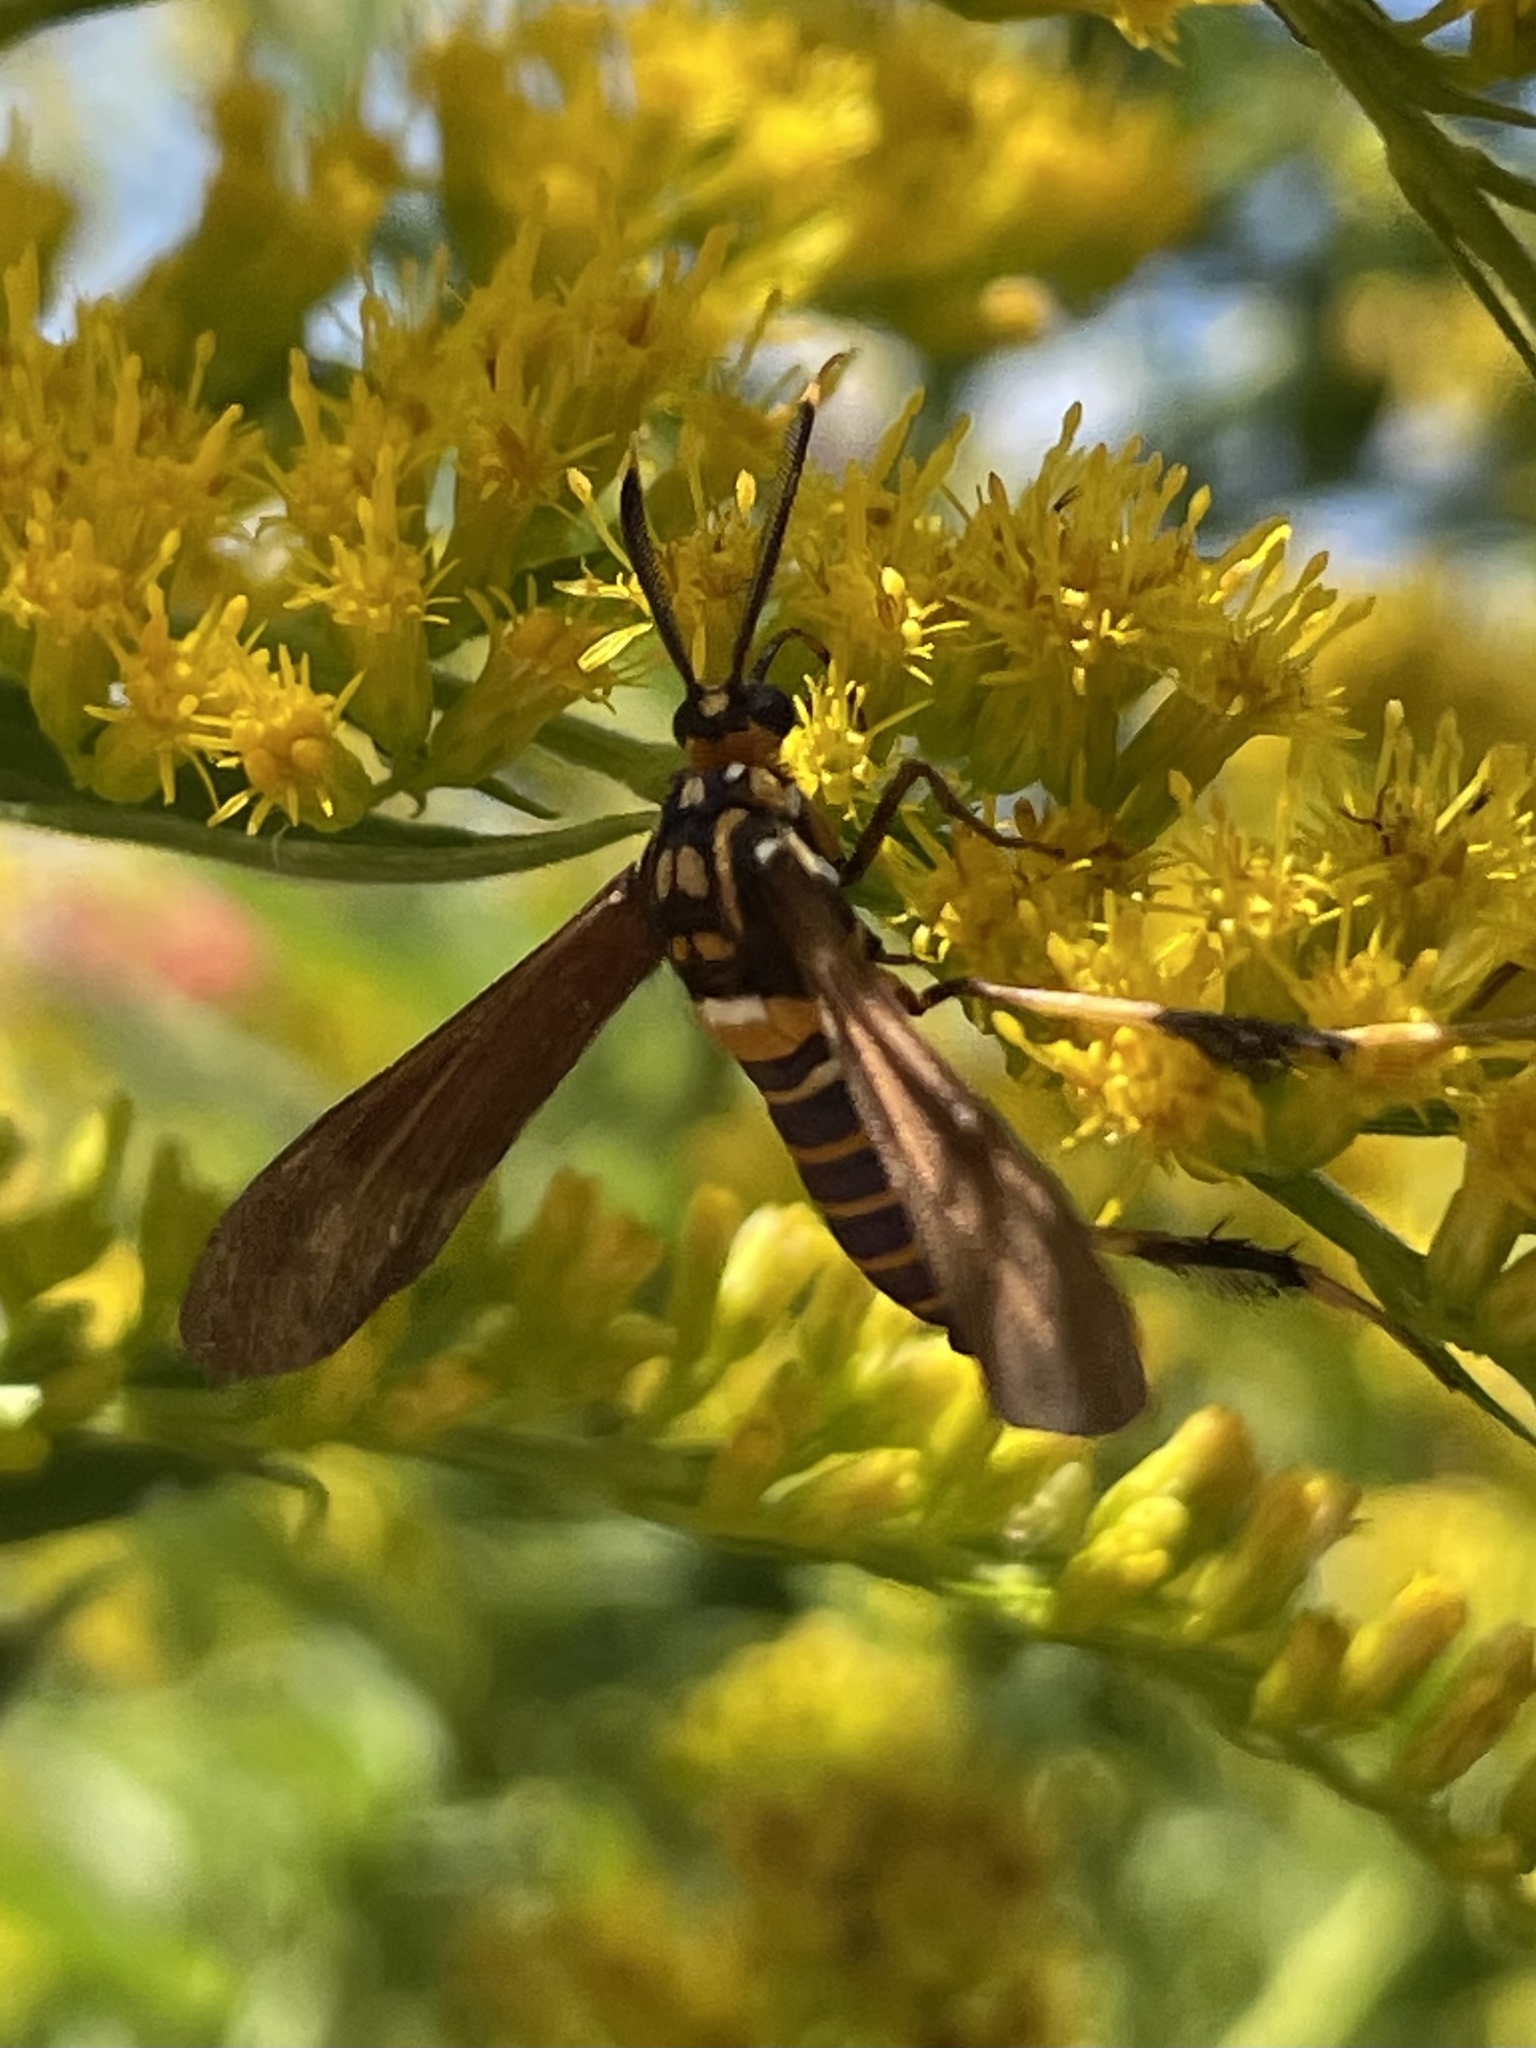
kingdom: Animalia
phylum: Arthropoda
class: Insecta
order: Lepidoptera
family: Erebidae
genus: Horama
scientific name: Horama panthalon
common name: Texas wasp moth
